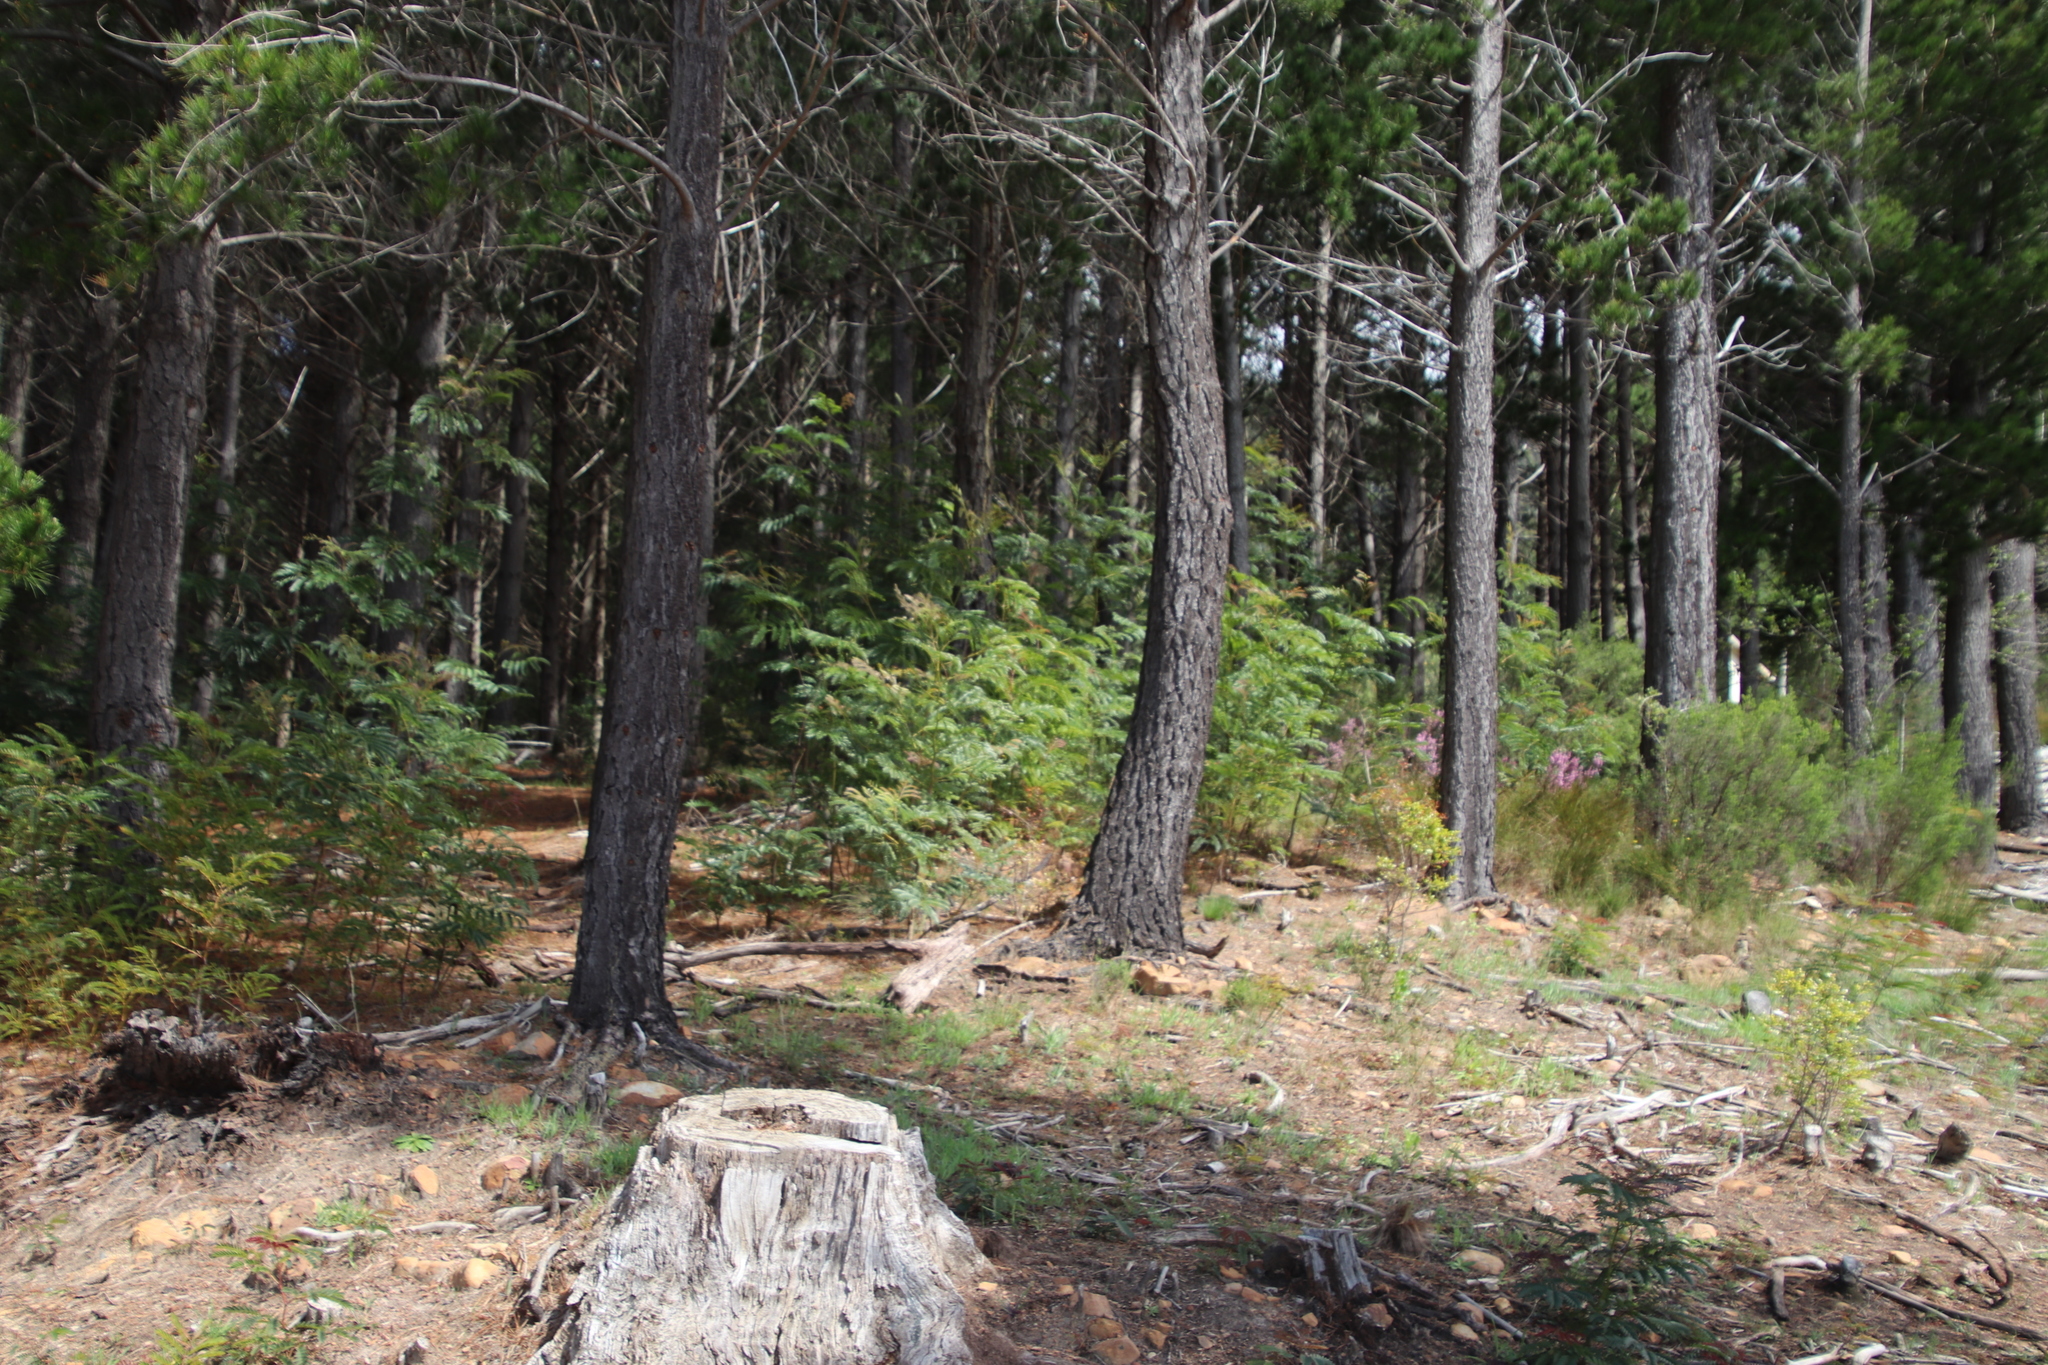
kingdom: Plantae
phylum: Tracheophyta
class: Magnoliopsida
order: Fabales
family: Fabaceae
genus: Acacia
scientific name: Acacia elata
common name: Cedar wattle
